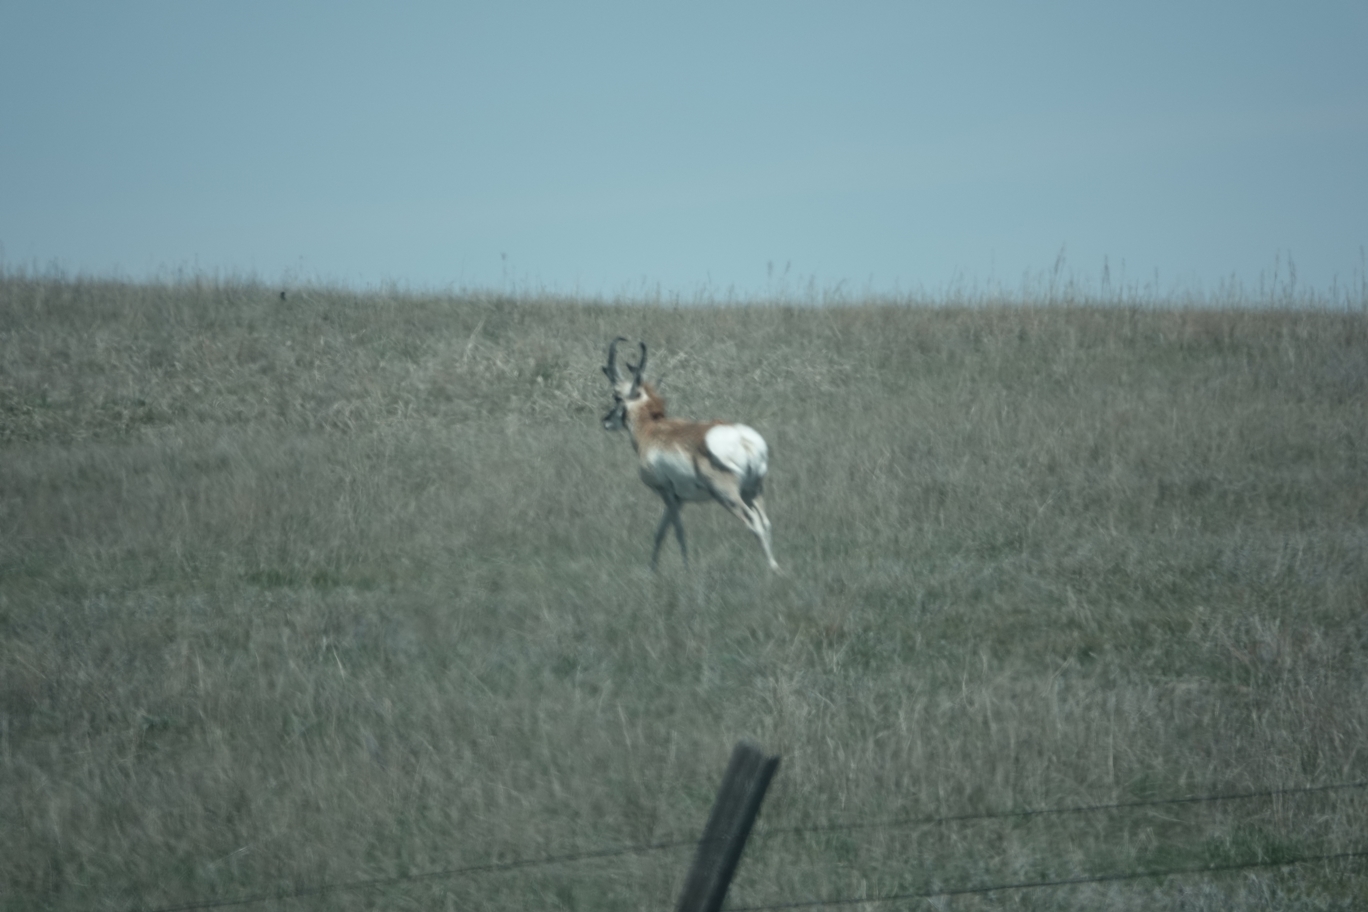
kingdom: Animalia
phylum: Chordata
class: Mammalia
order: Artiodactyla
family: Antilocapridae
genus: Antilocapra
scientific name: Antilocapra americana
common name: Pronghorn
